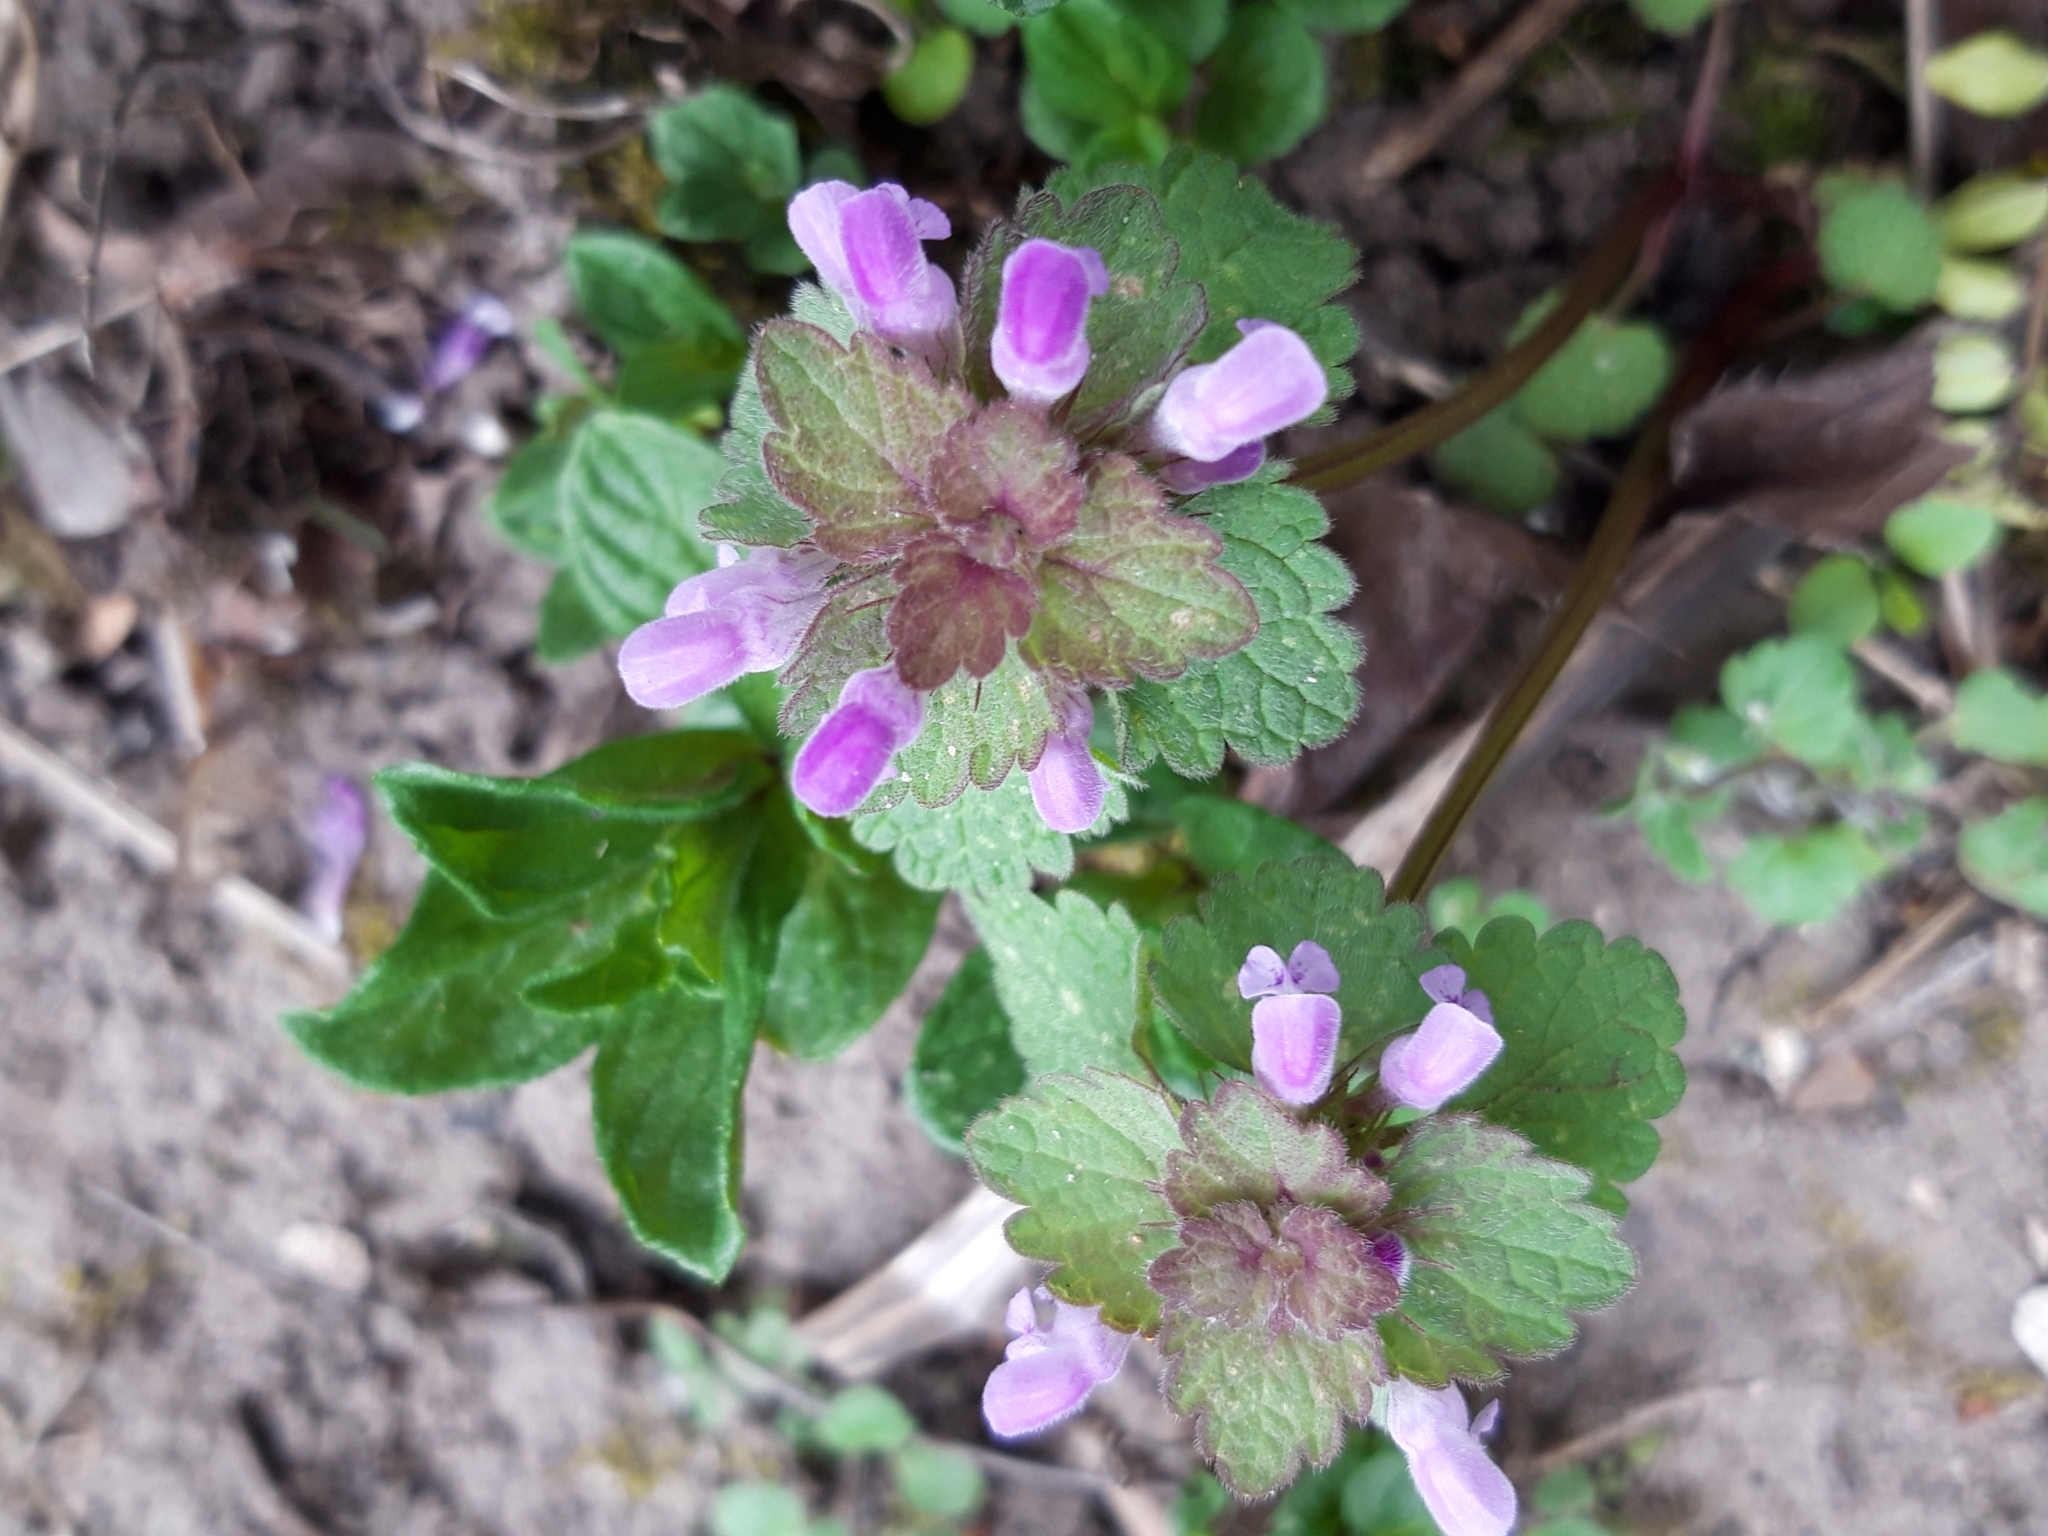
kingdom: Plantae
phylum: Tracheophyta
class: Magnoliopsida
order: Lamiales
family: Lamiaceae
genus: Lamium
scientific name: Lamium purpureum
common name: Red dead-nettle
